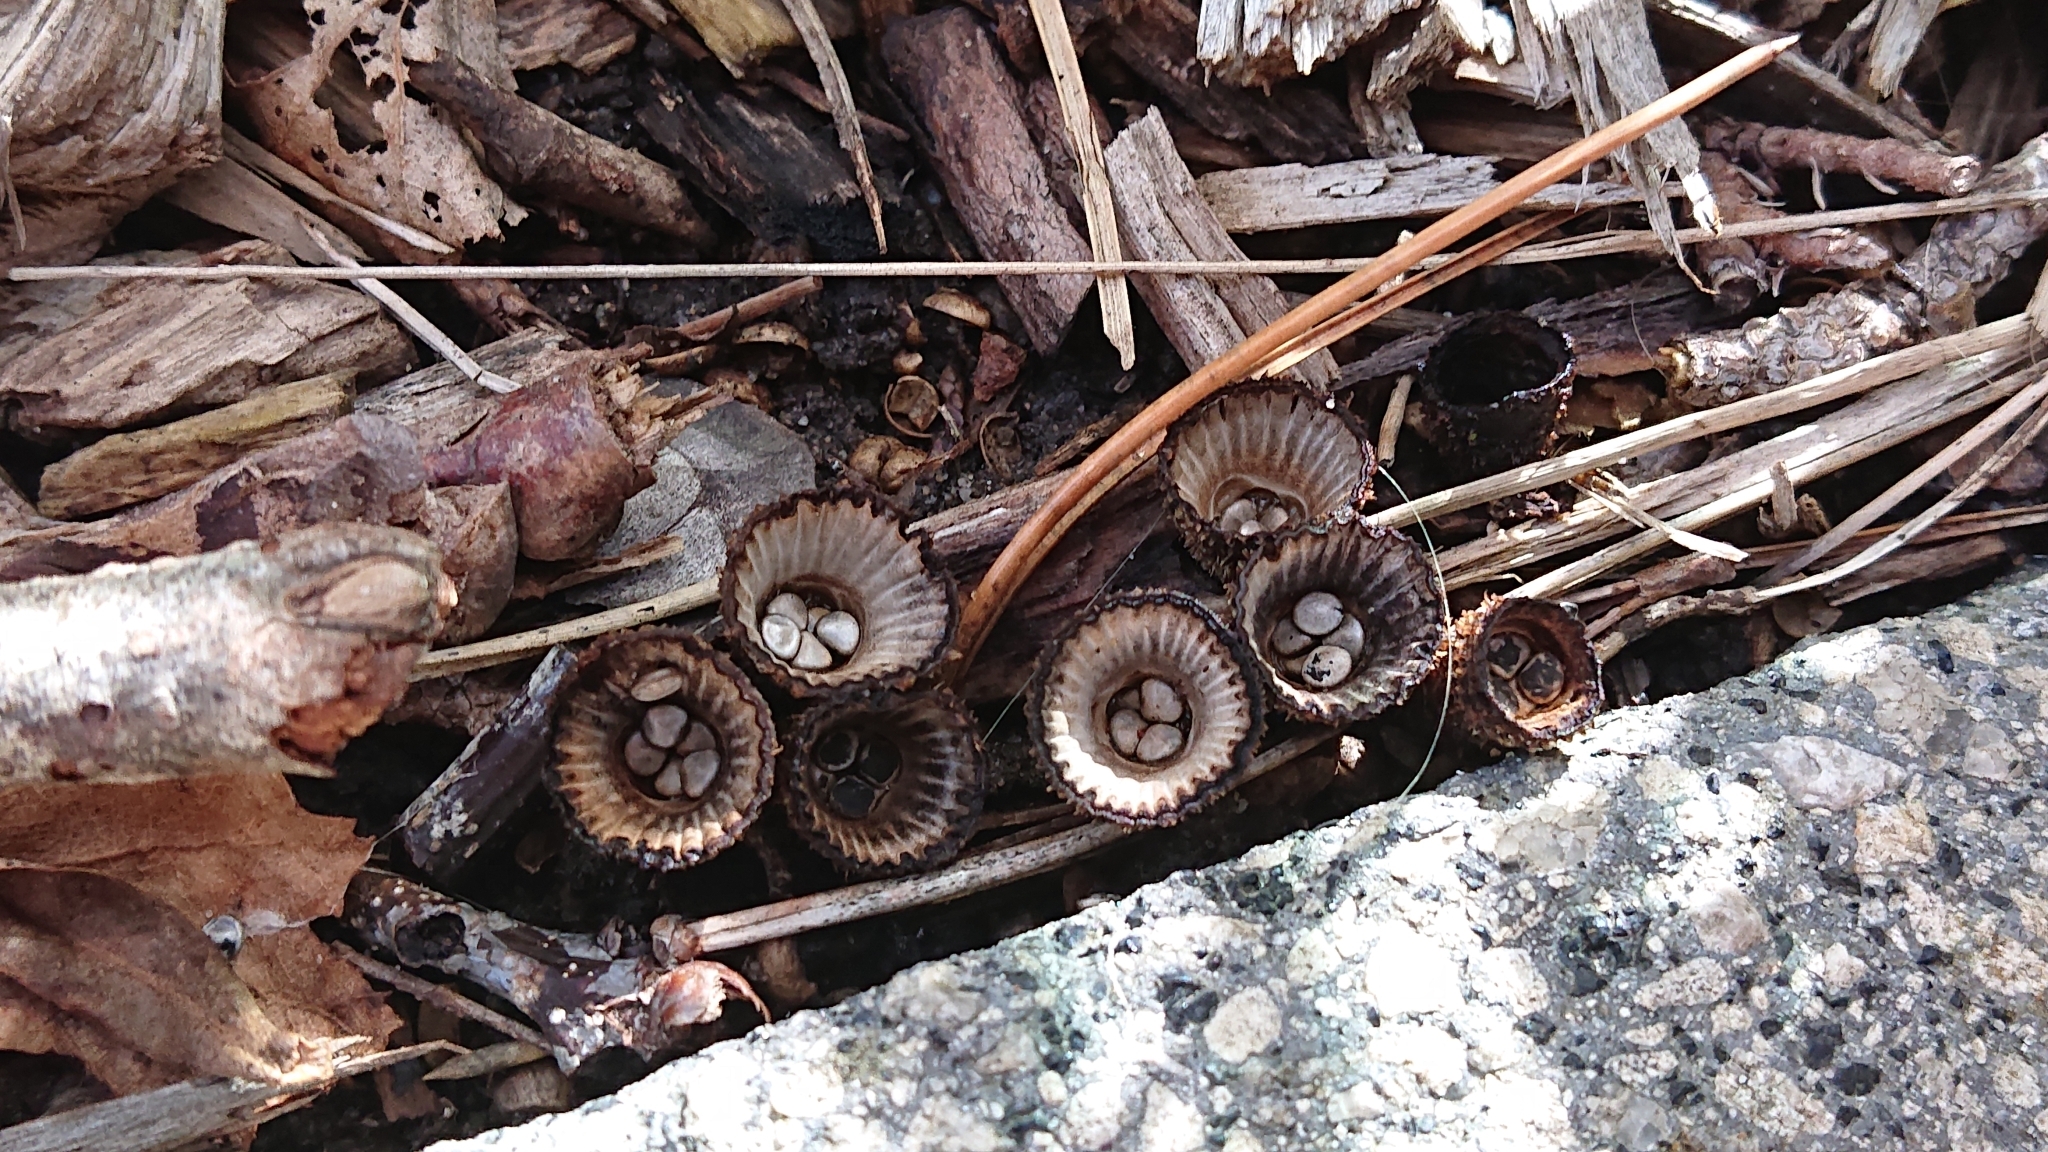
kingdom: Fungi
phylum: Basidiomycota
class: Agaricomycetes
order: Agaricales
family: Agaricaceae
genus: Cyathus
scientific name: Cyathus striatus
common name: Fluted bird's nest
